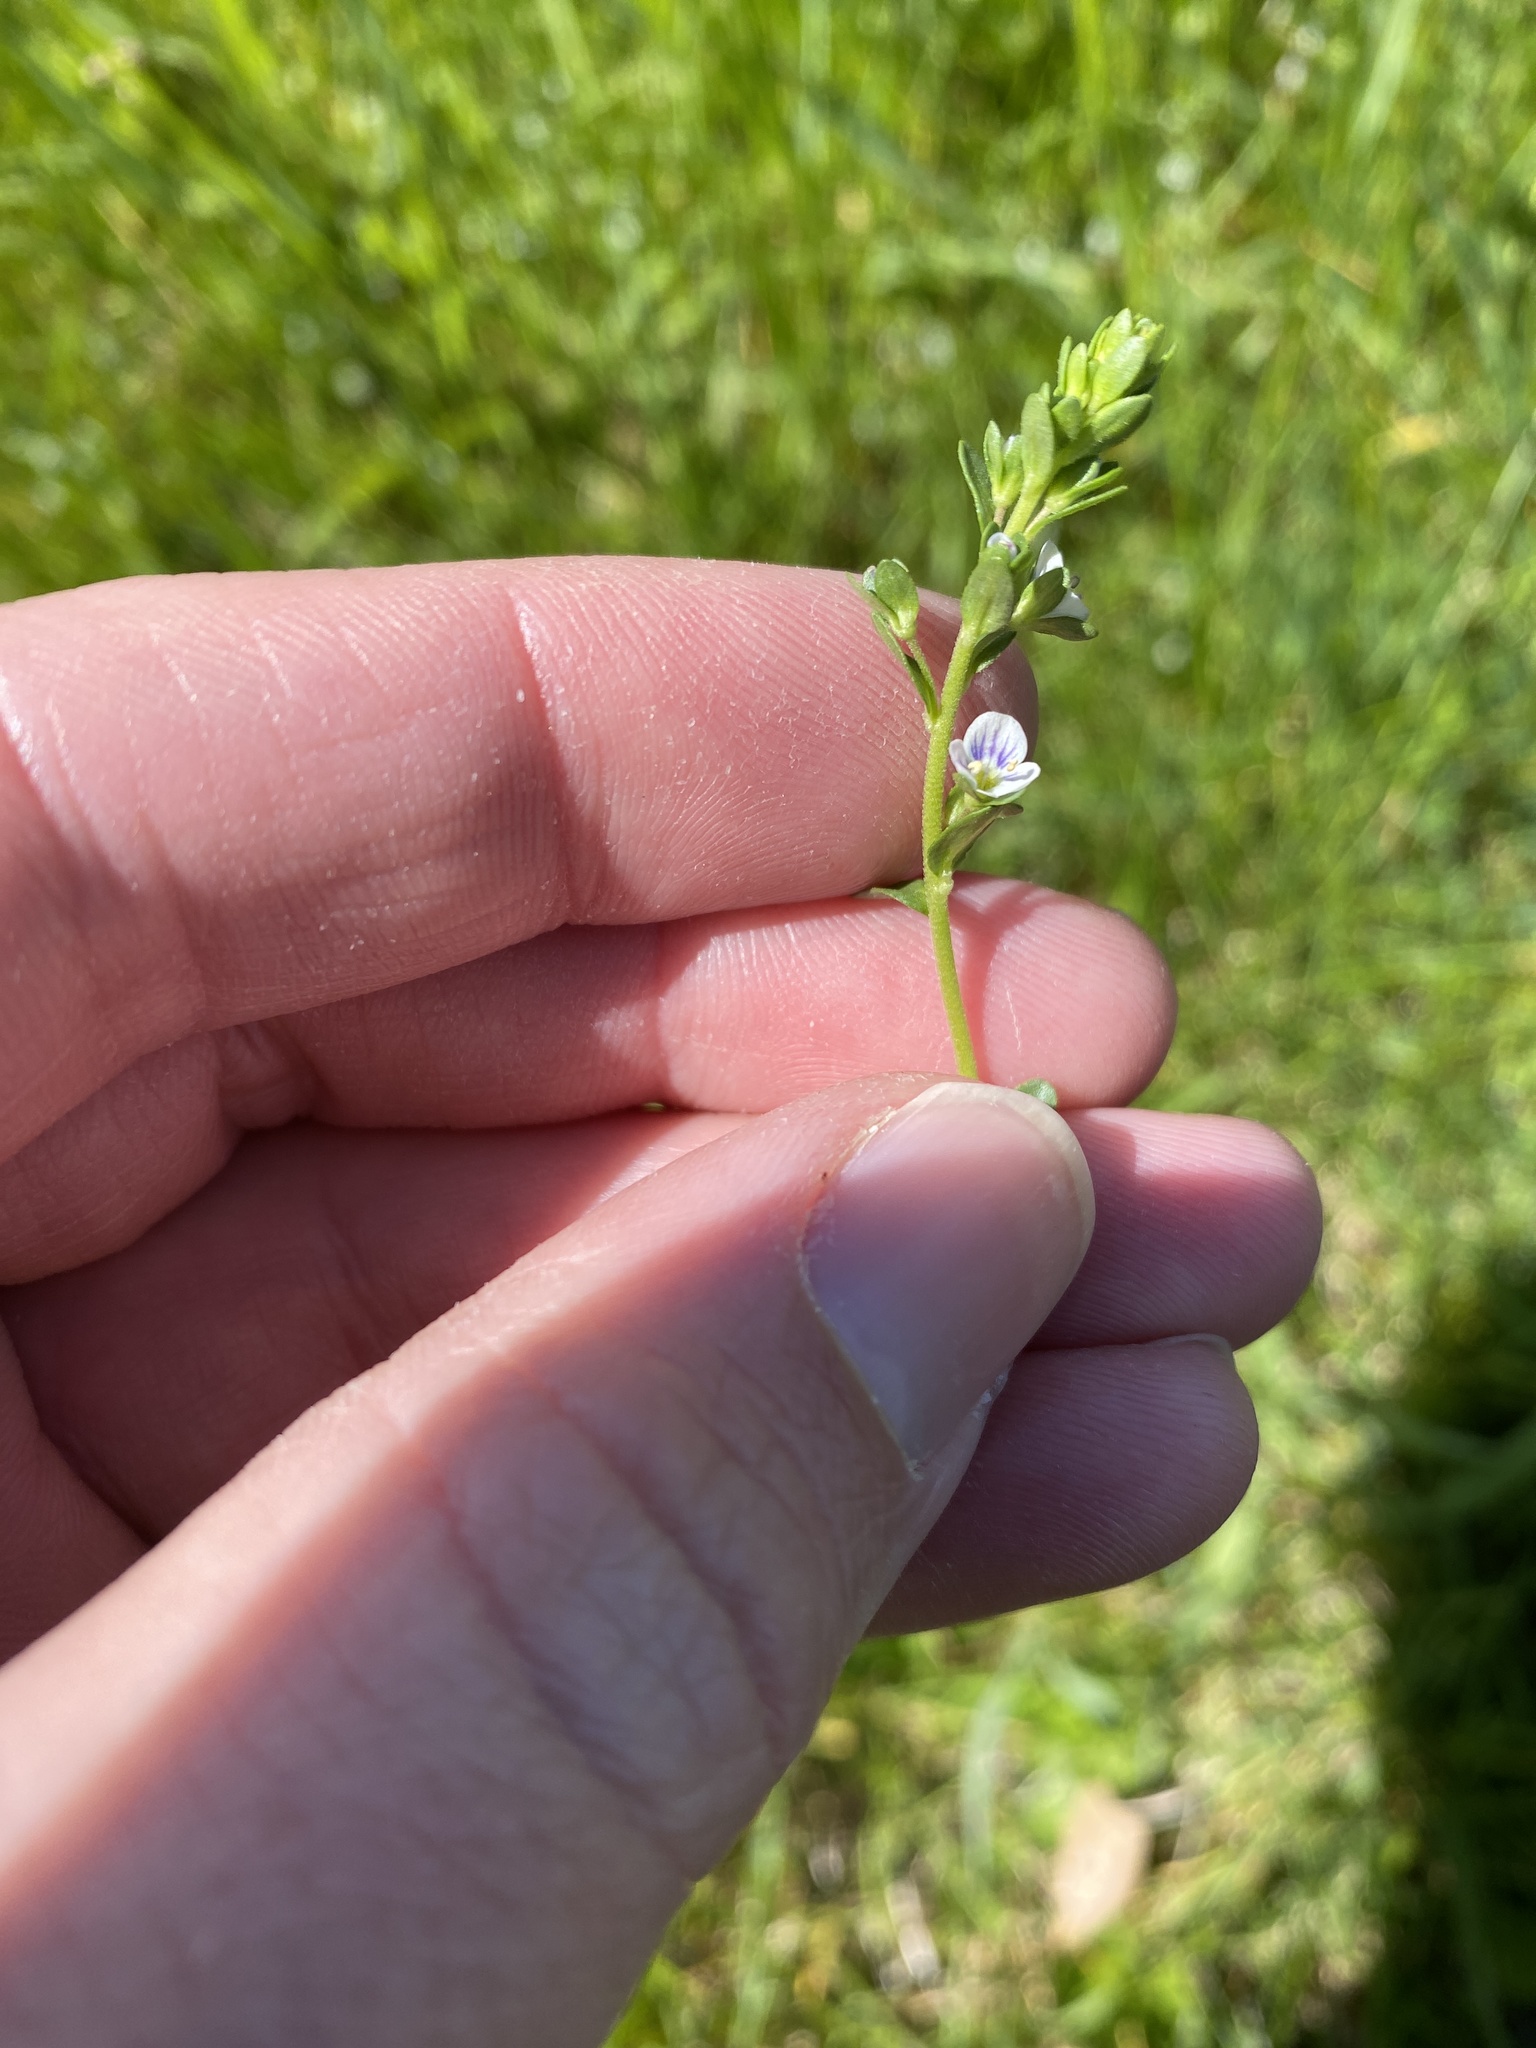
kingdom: Plantae
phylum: Tracheophyta
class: Magnoliopsida
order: Lamiales
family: Plantaginaceae
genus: Veronica
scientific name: Veronica serpyllifolia
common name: Thyme-leaved speedwell
